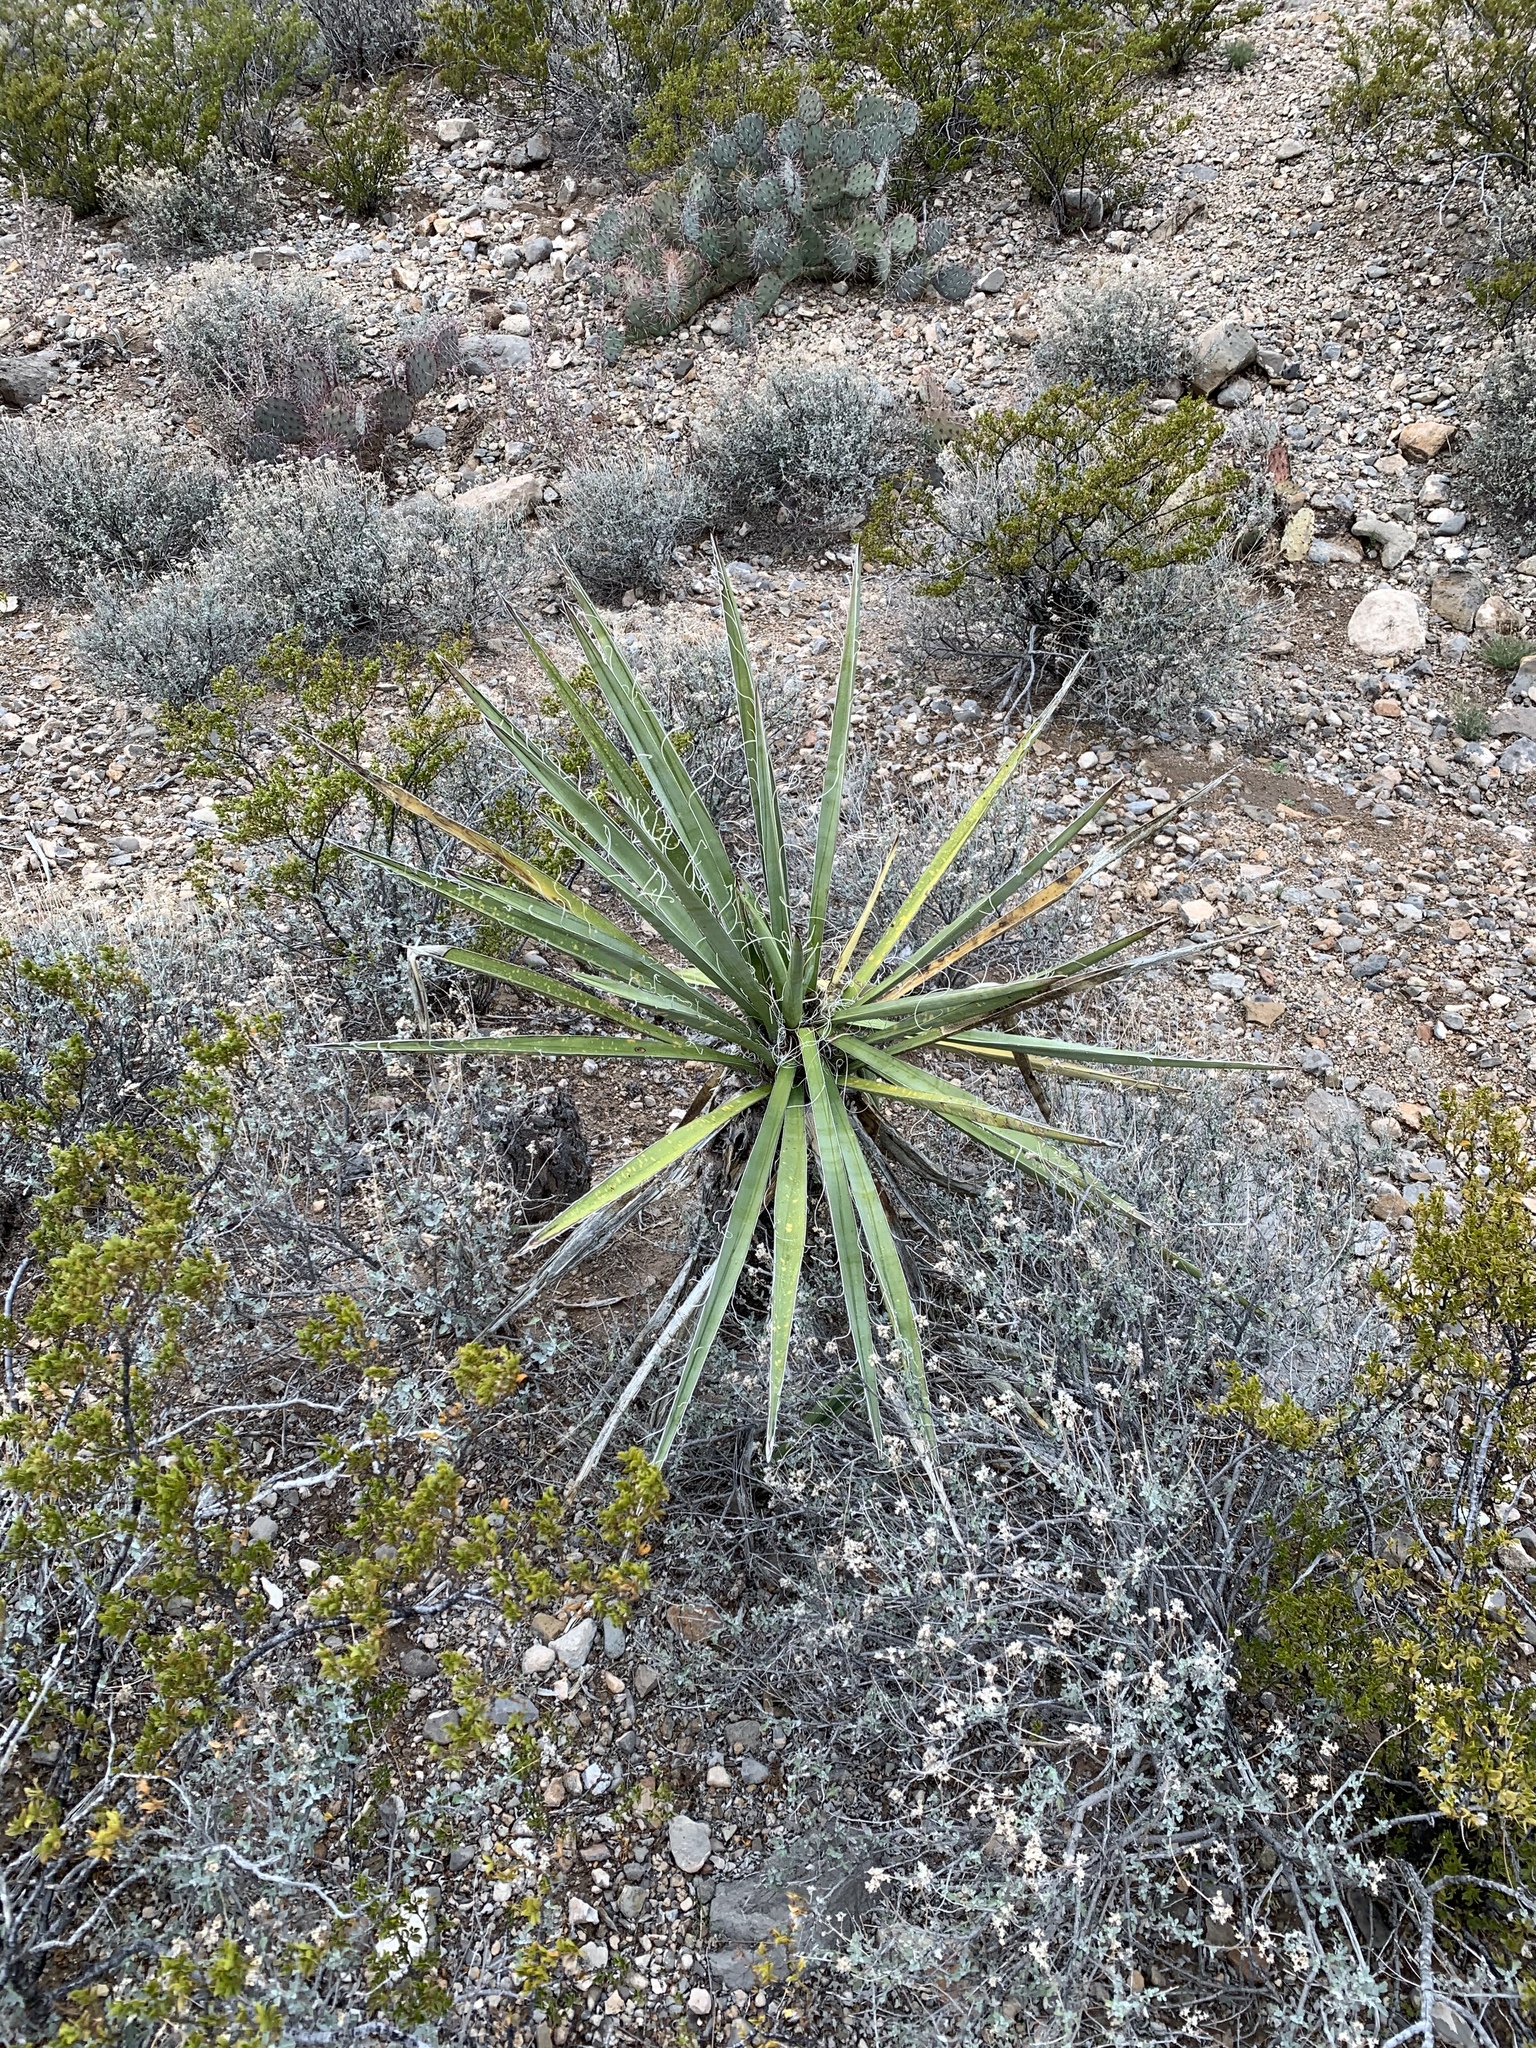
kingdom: Plantae
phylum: Tracheophyta
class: Liliopsida
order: Asparagales
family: Asparagaceae
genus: Yucca
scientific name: Yucca treculiana
